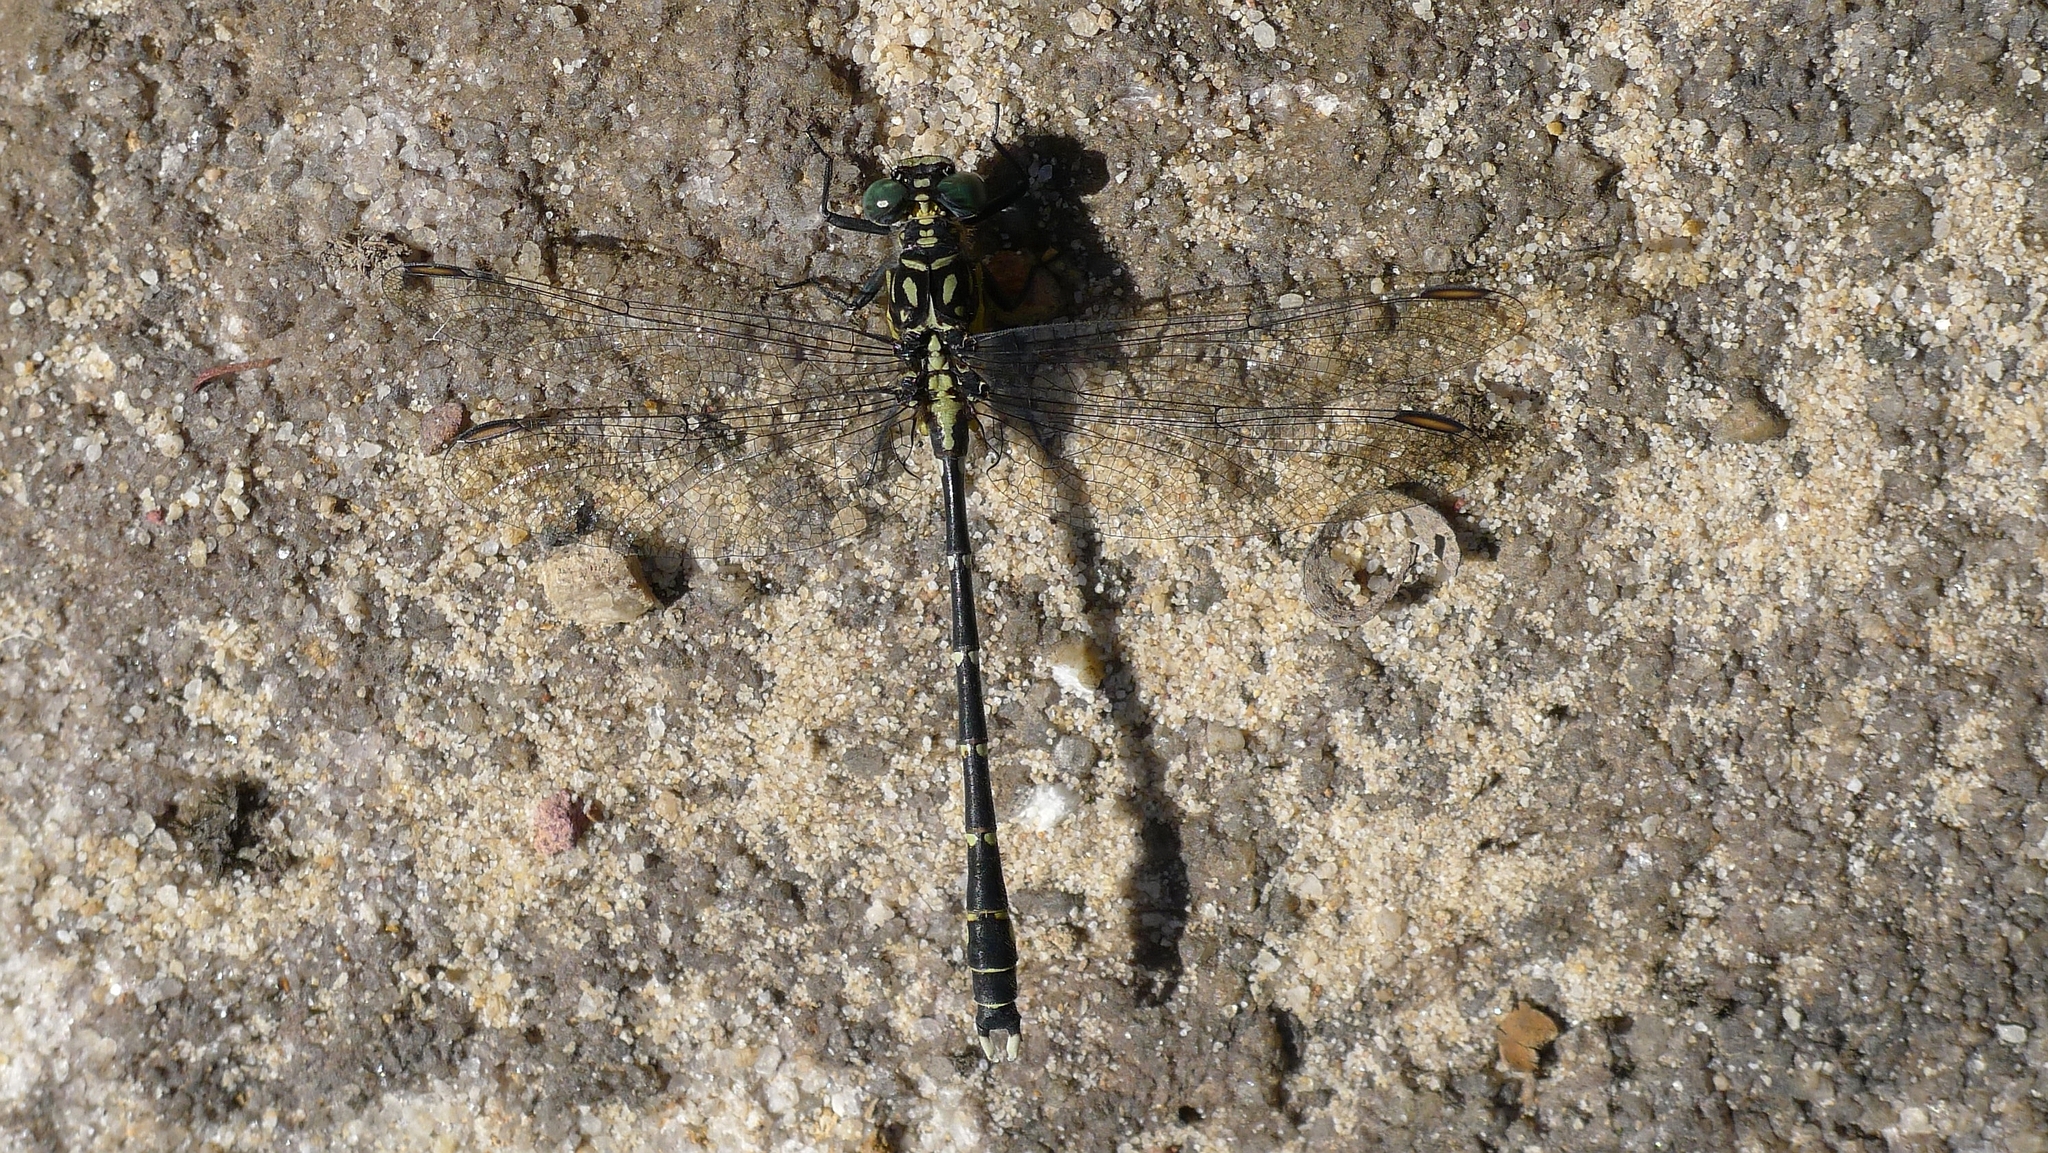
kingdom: Animalia
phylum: Arthropoda
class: Insecta
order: Odonata
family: Gomphidae
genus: Hemigomphus
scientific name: Hemigomphus gouldii
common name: Southern vicetail
